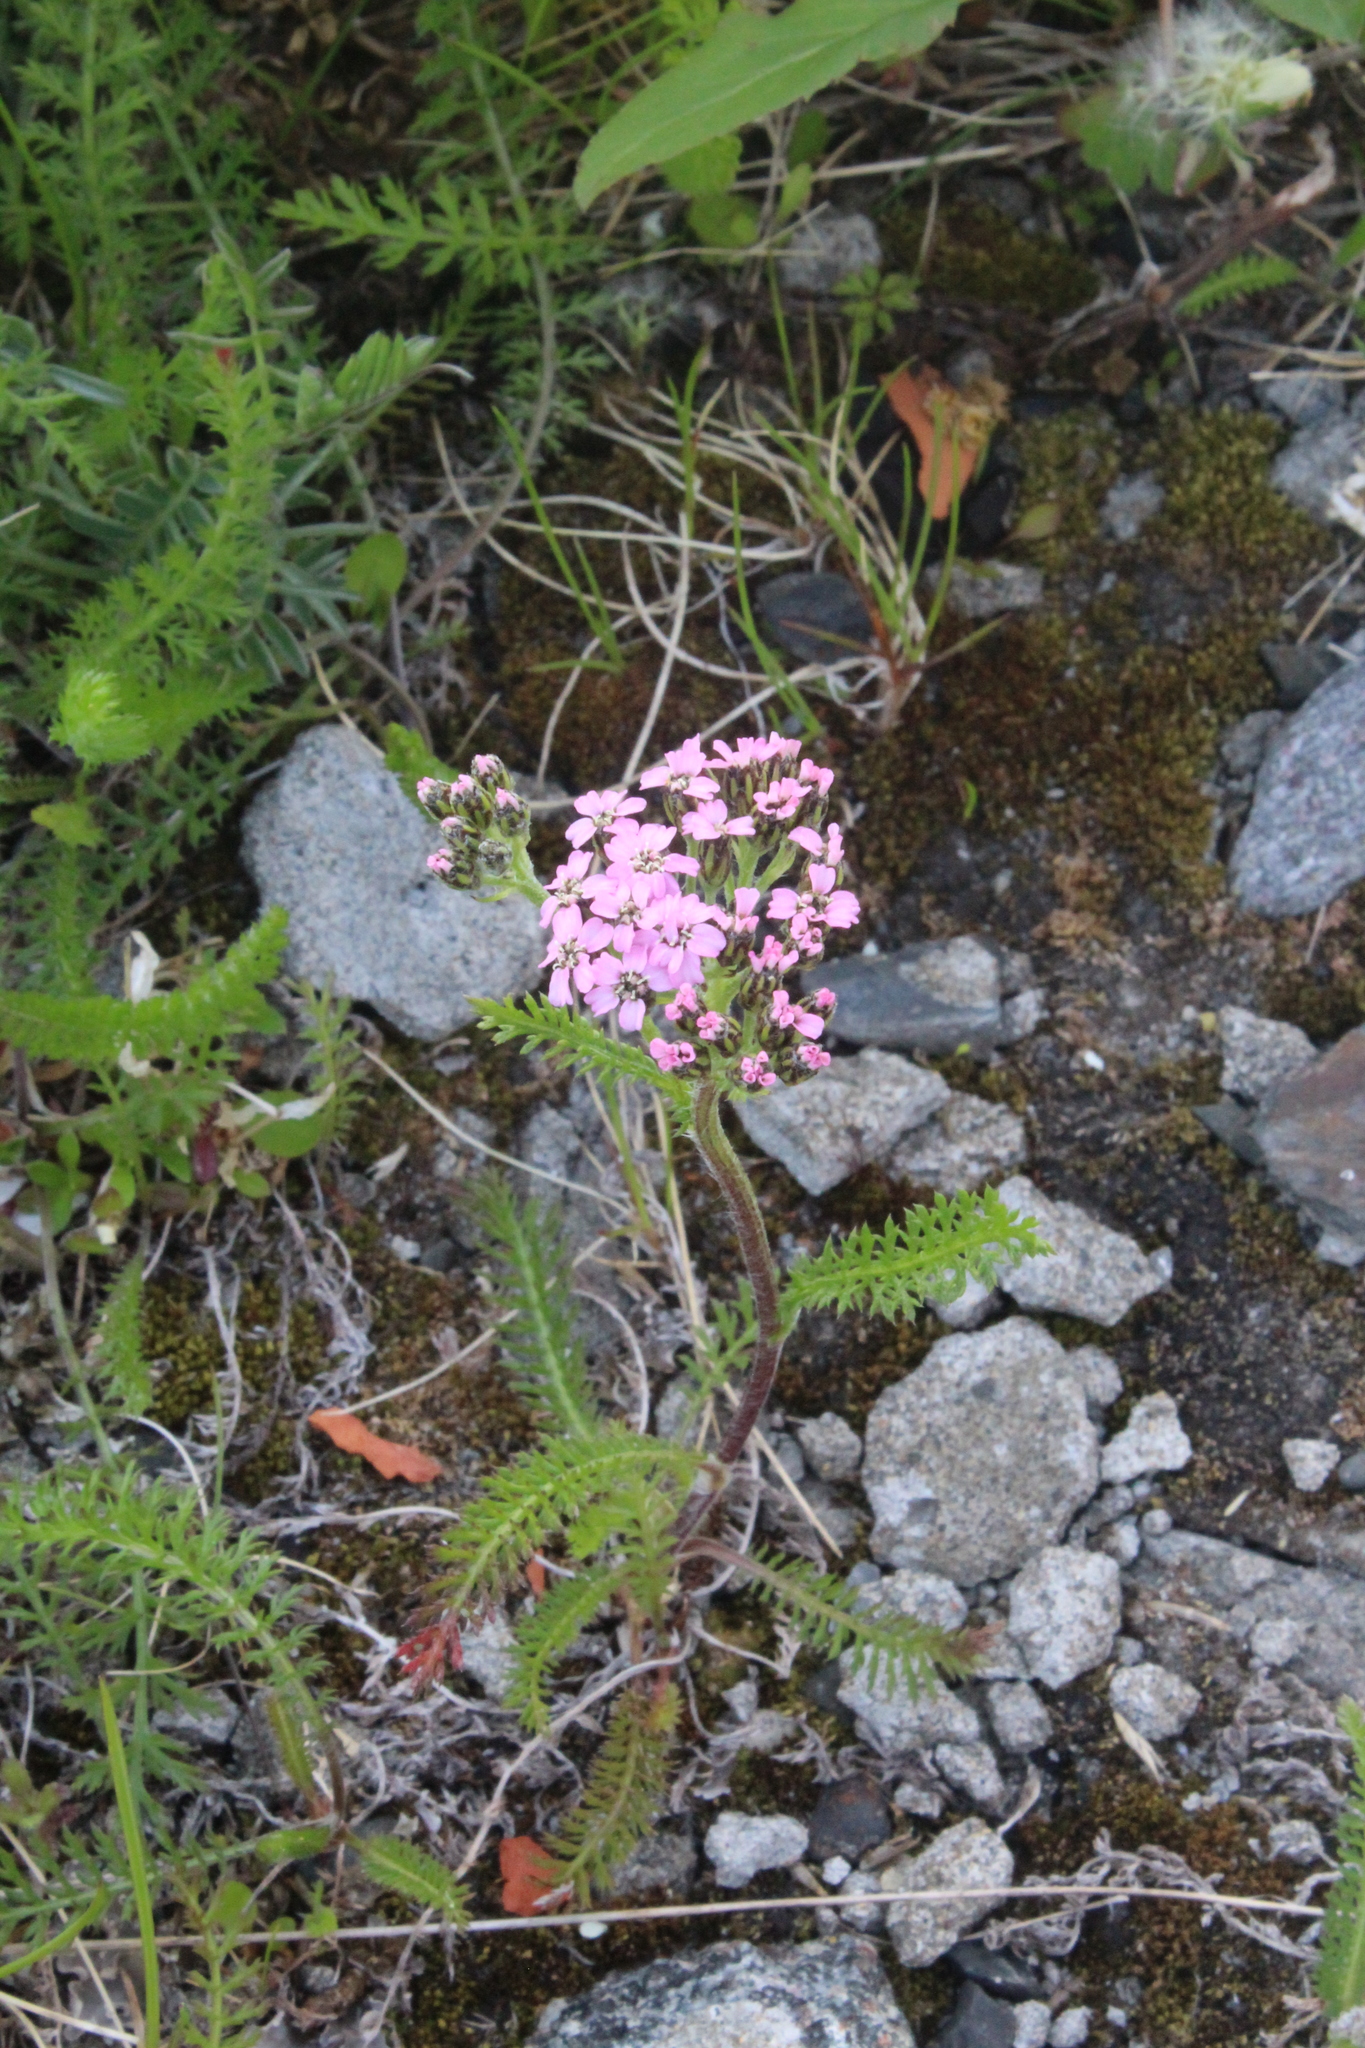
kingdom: Plantae
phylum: Tracheophyta
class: Magnoliopsida
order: Asterales
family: Asteraceae
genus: Achillea
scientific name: Achillea apiculata
